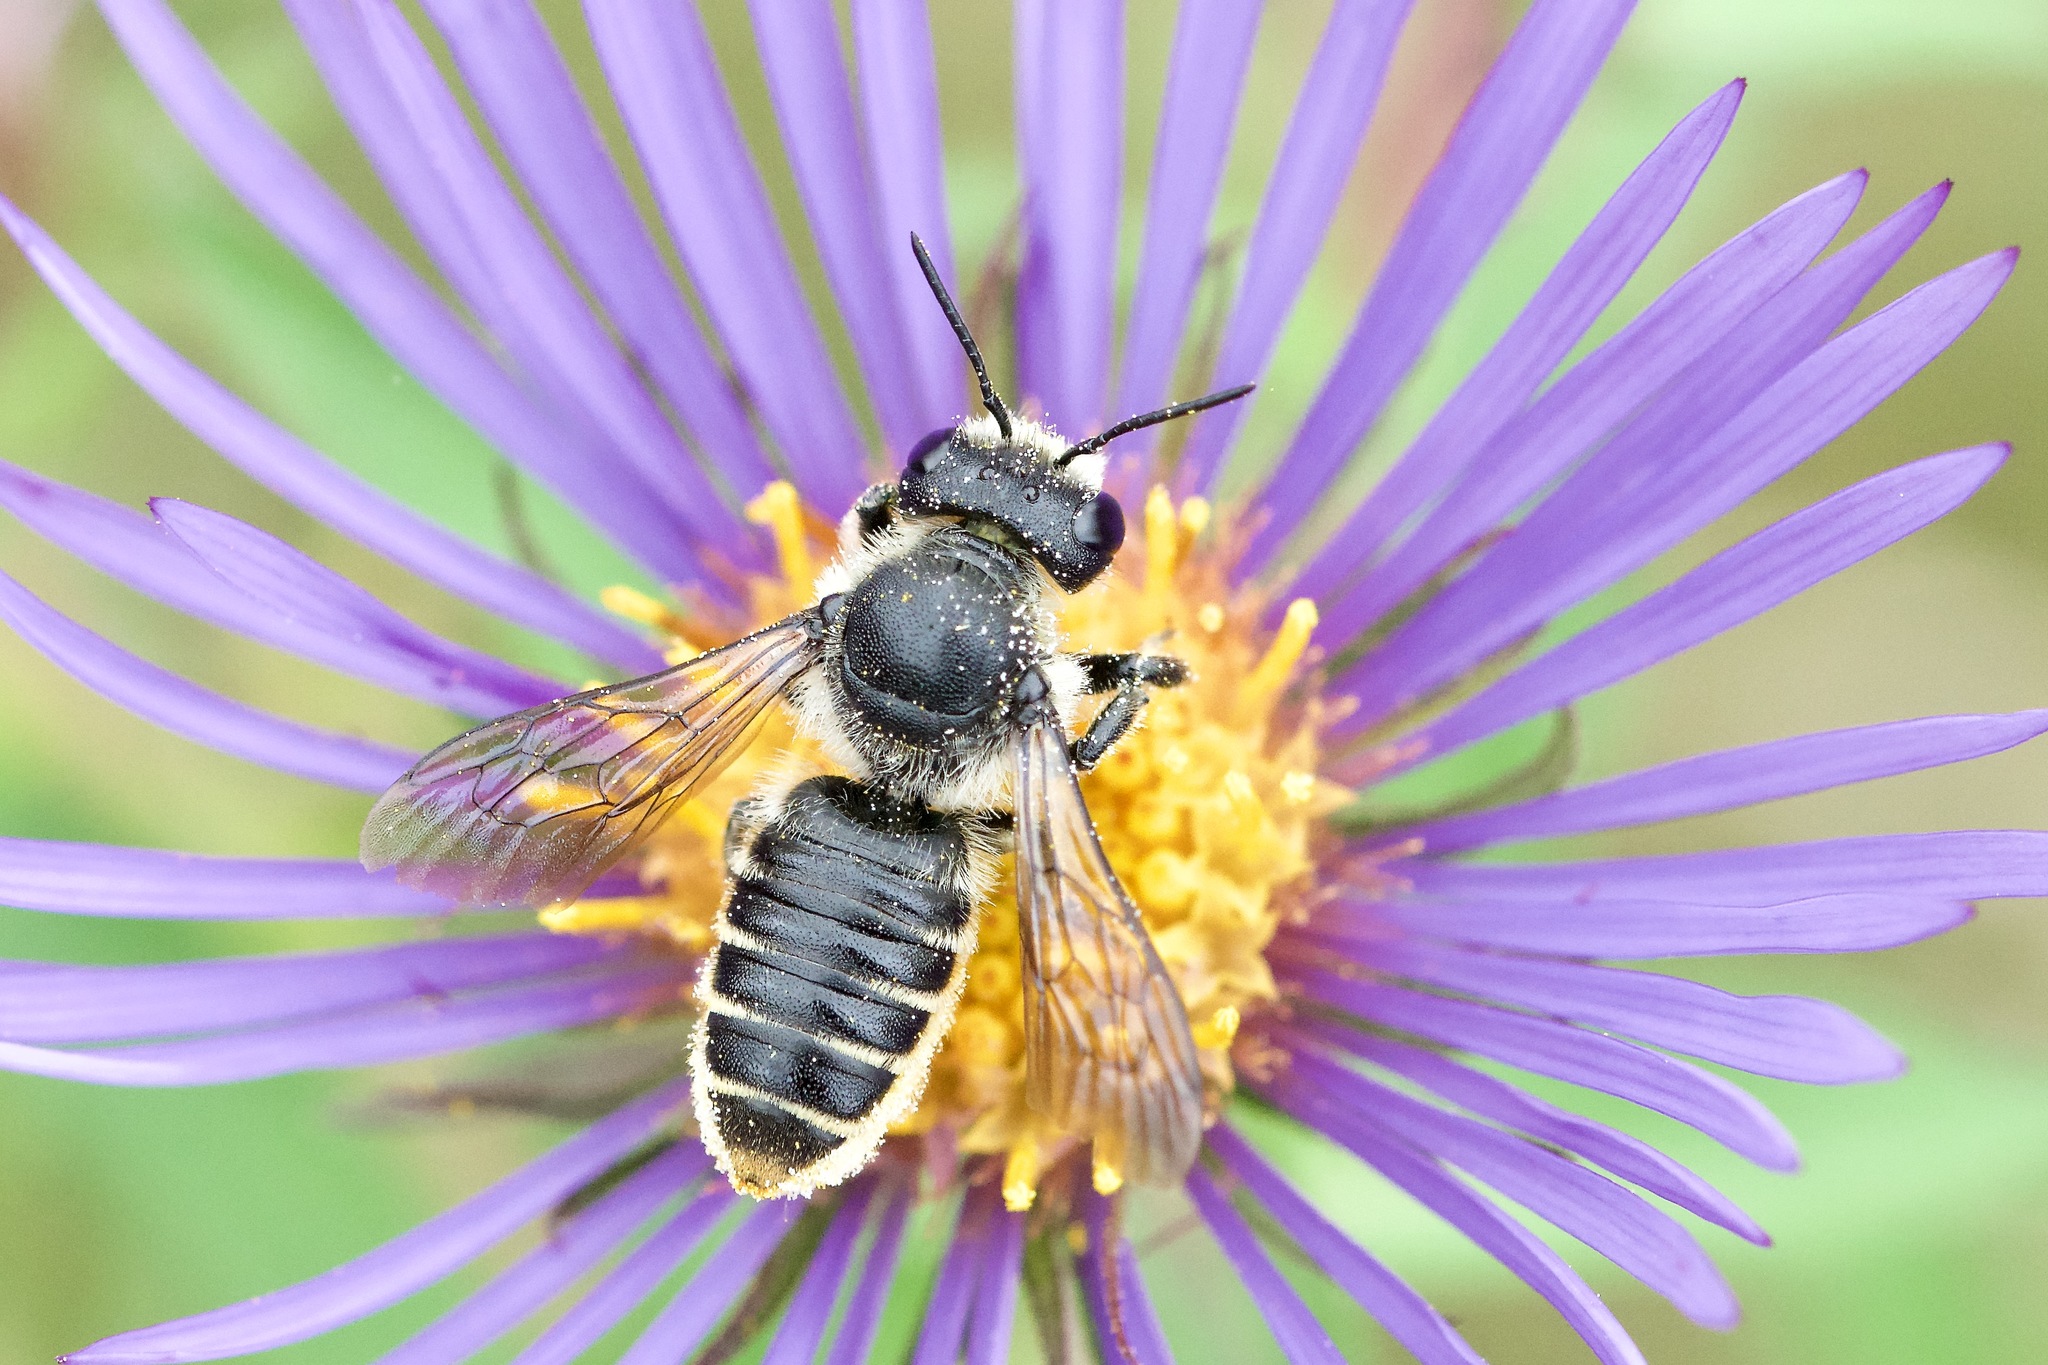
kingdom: Animalia
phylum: Arthropoda
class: Insecta
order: Hymenoptera
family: Megachilidae
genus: Megachile
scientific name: Megachile relativa
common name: Golden-tailed leafcutter
